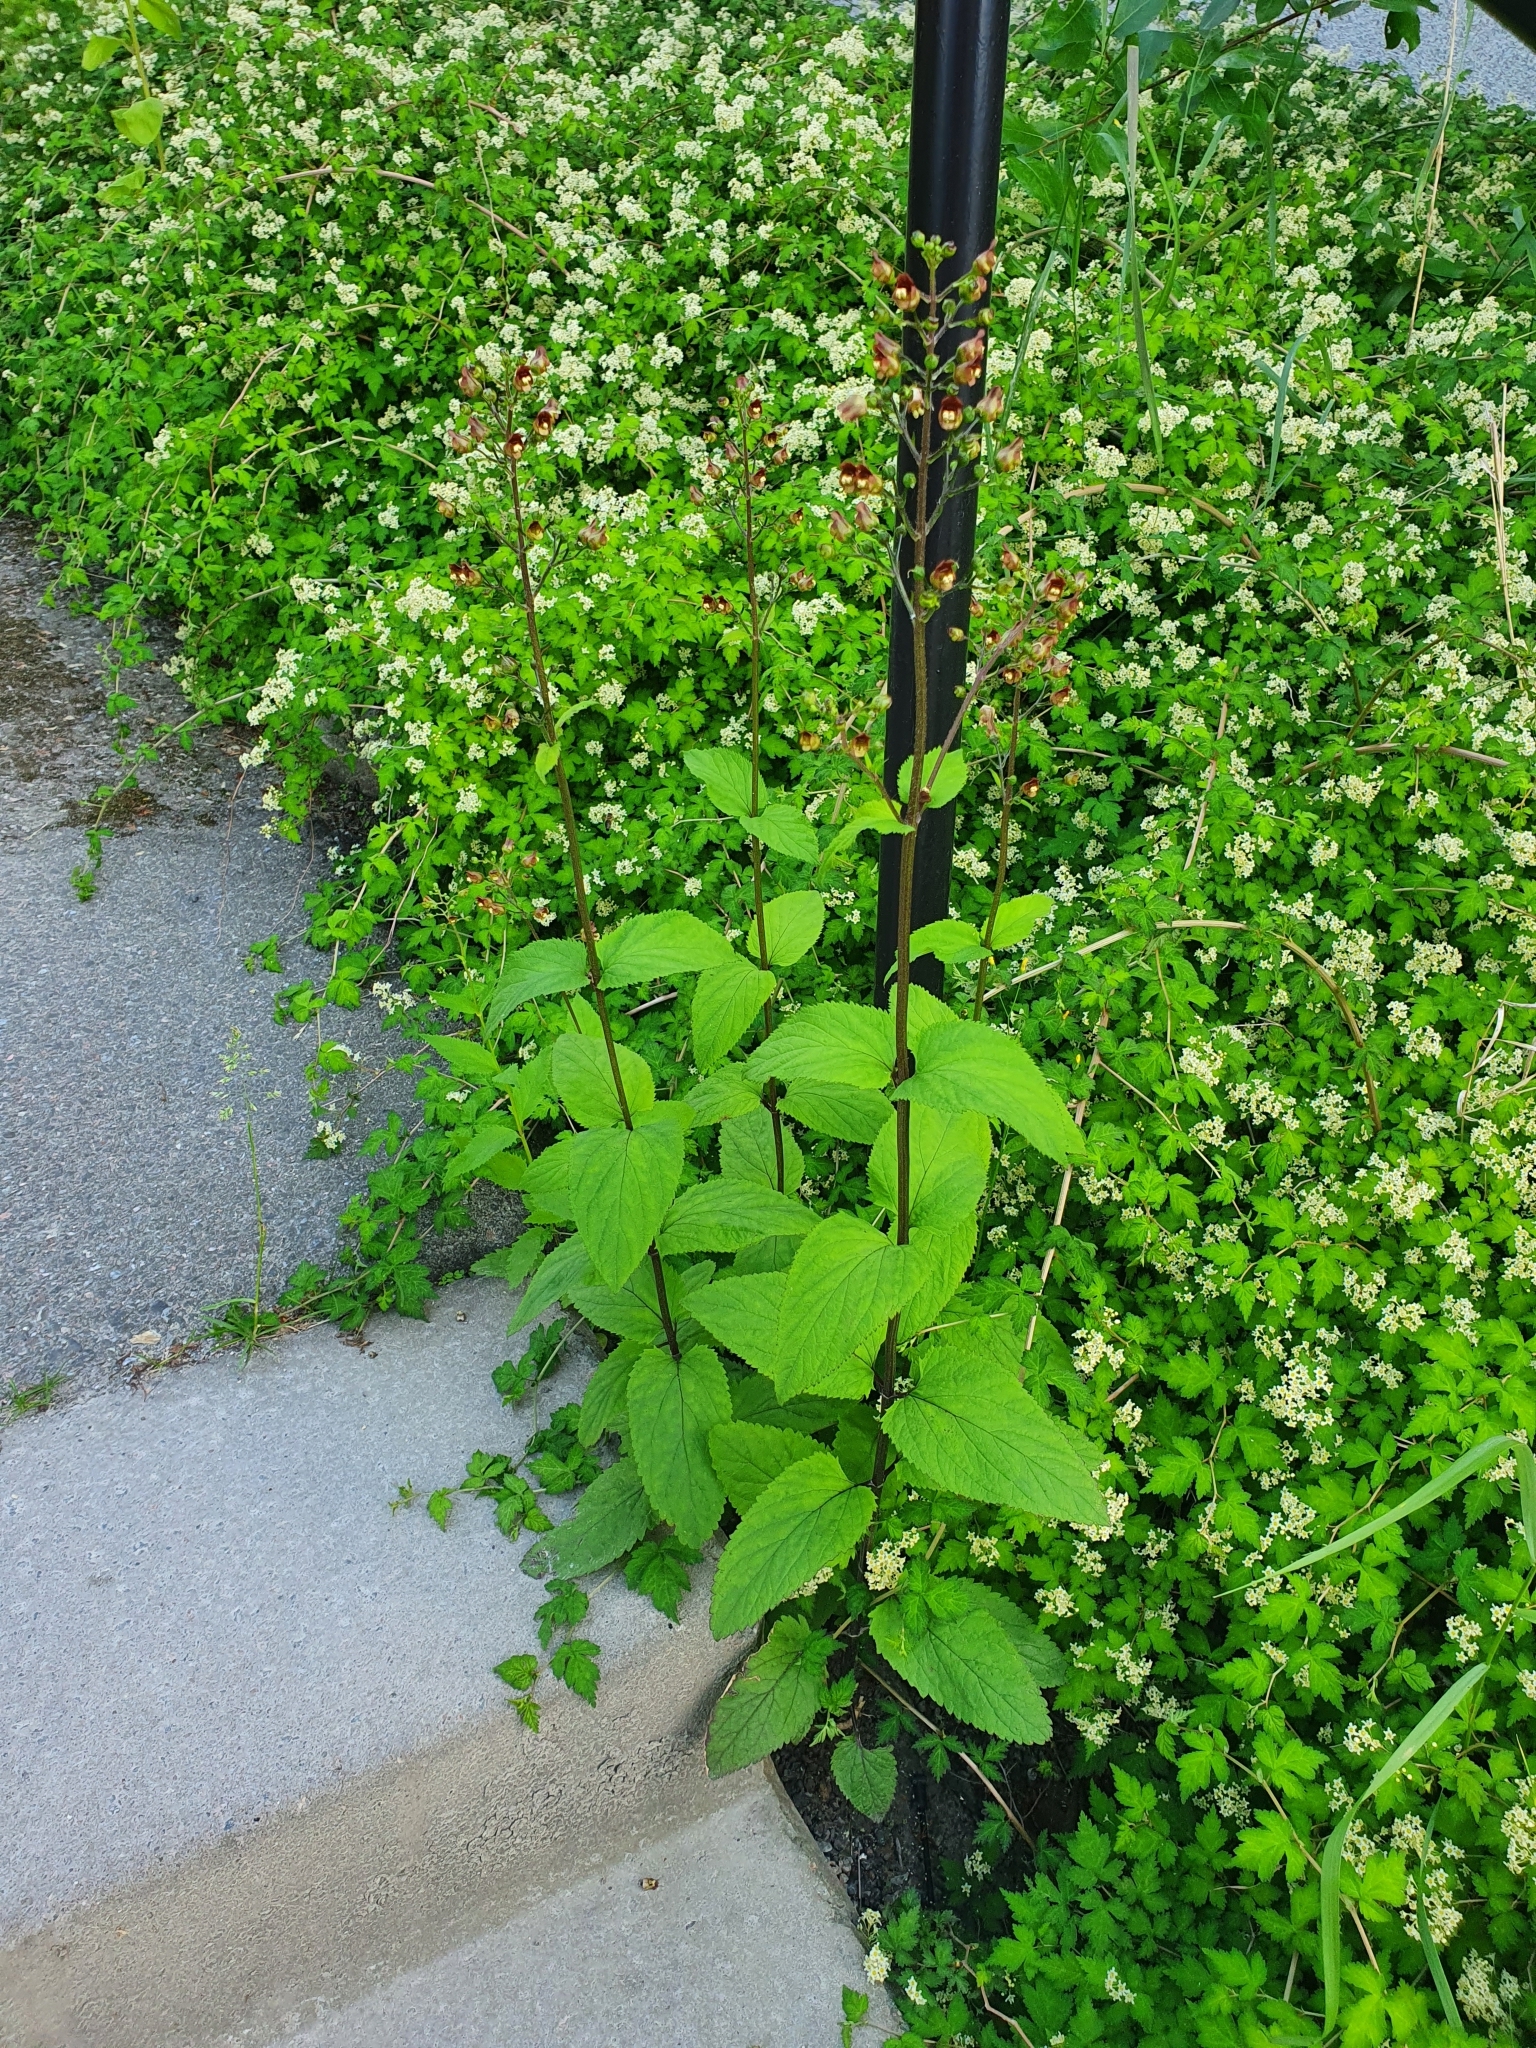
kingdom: Plantae
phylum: Tracheophyta
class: Magnoliopsida
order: Lamiales
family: Scrophulariaceae
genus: Scrophularia
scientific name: Scrophularia nodosa
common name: Common figwort
